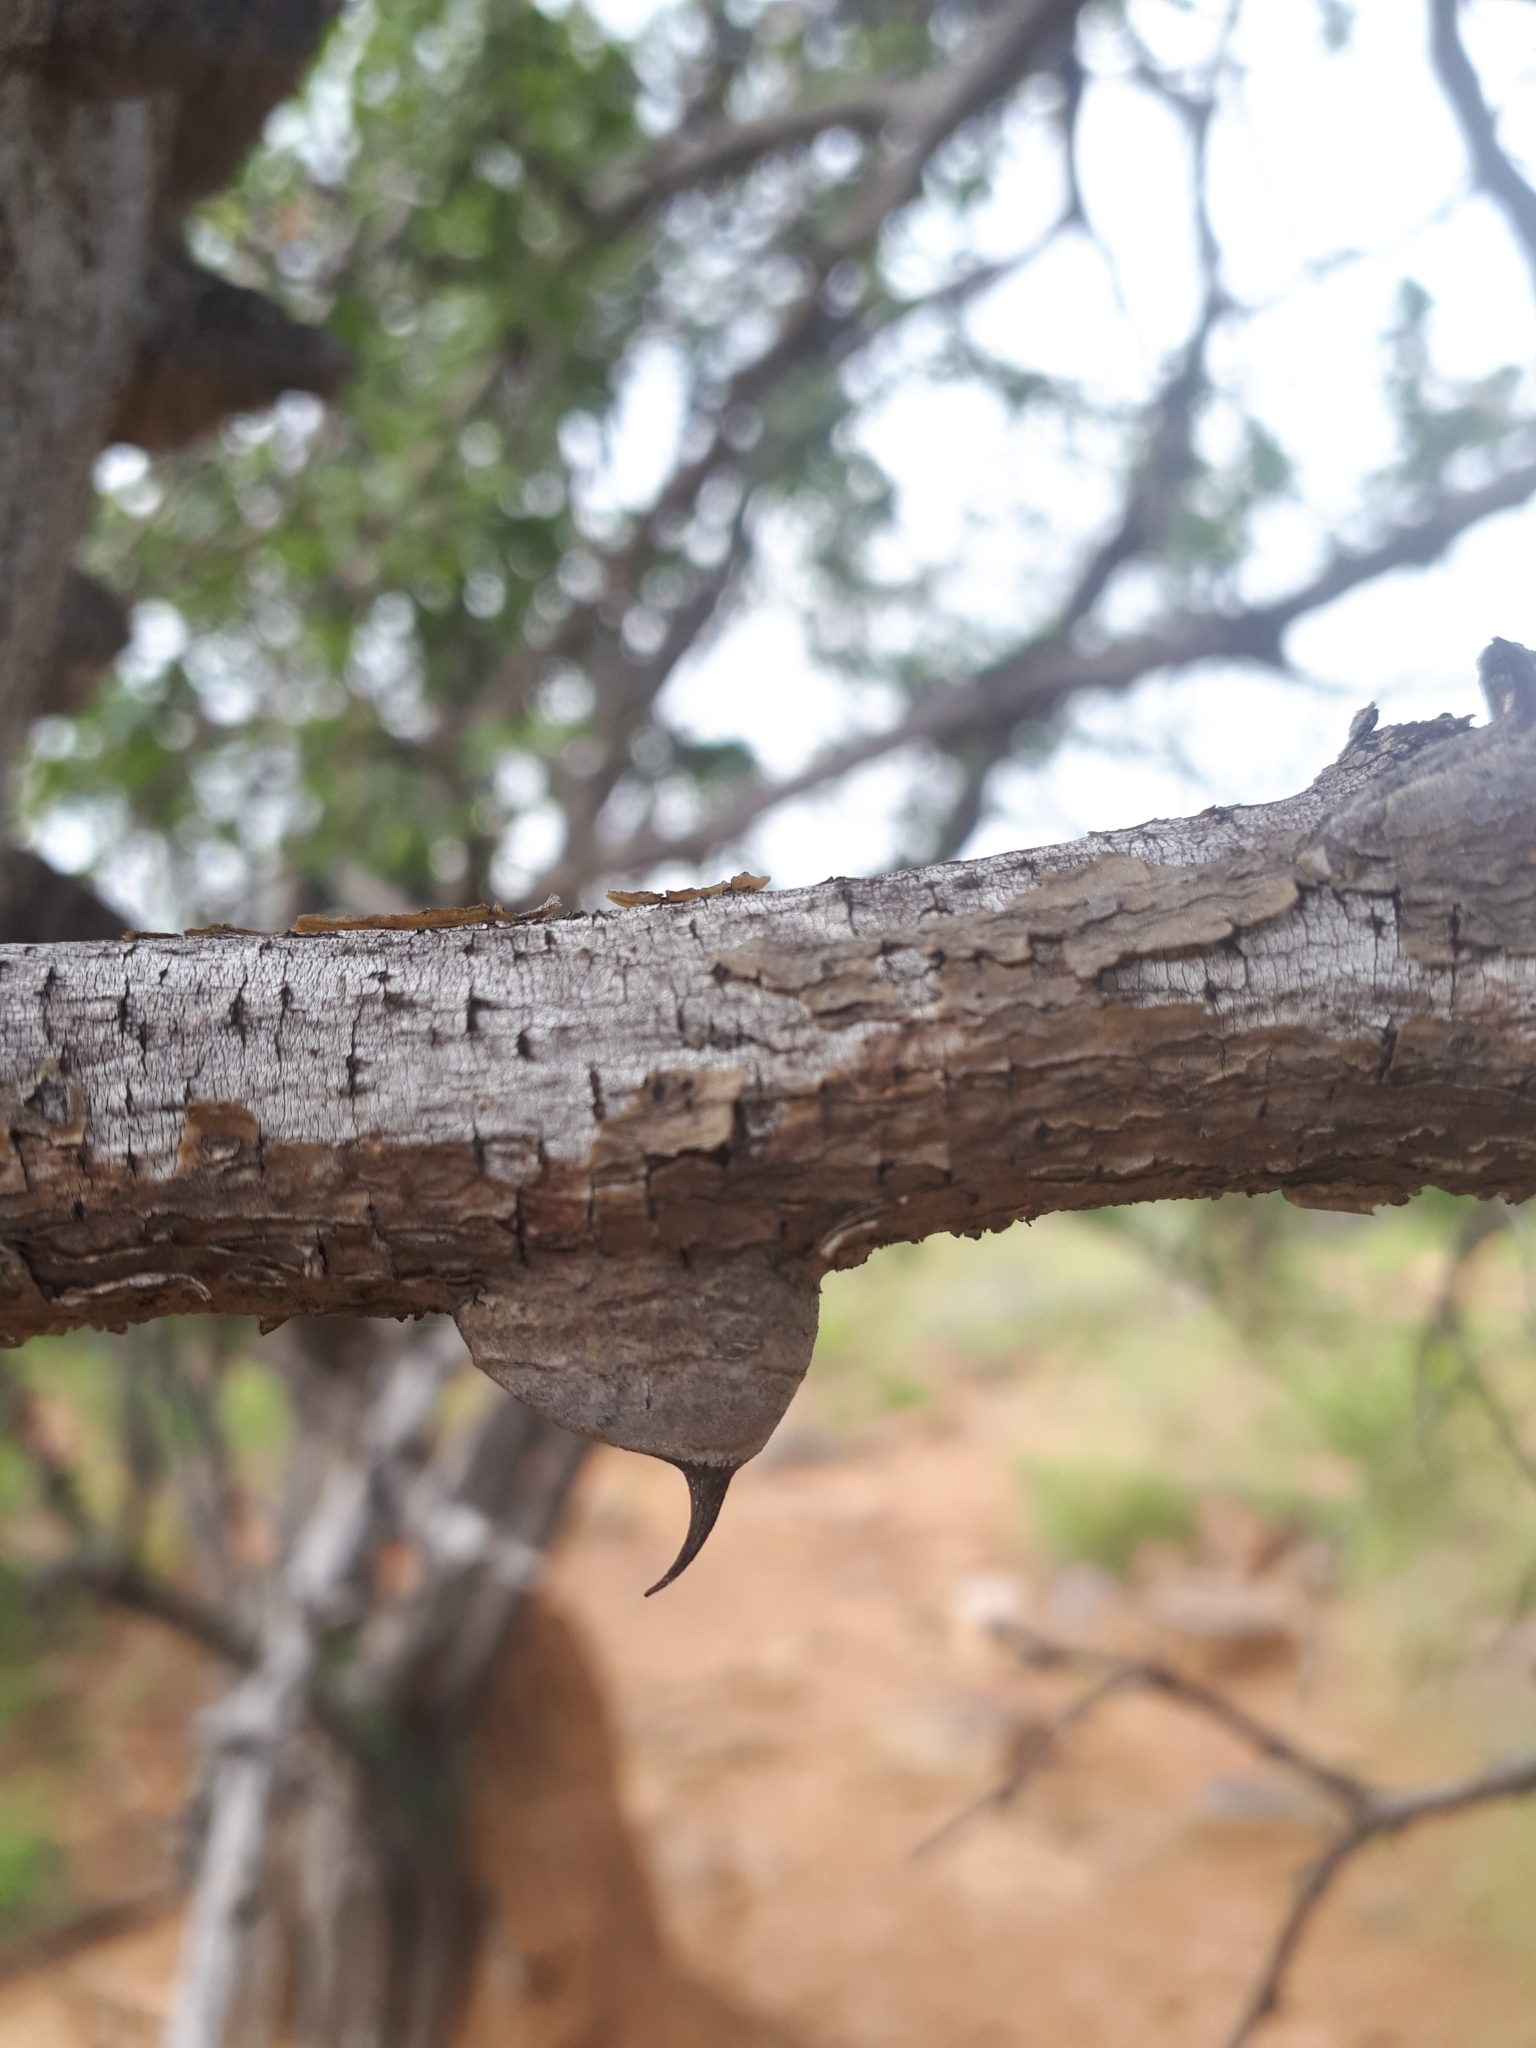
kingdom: Plantae
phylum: Tracheophyta
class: Magnoliopsida
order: Fabales
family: Fabaceae
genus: Senegalia
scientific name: Senegalia nigrescens
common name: Knobthorn
